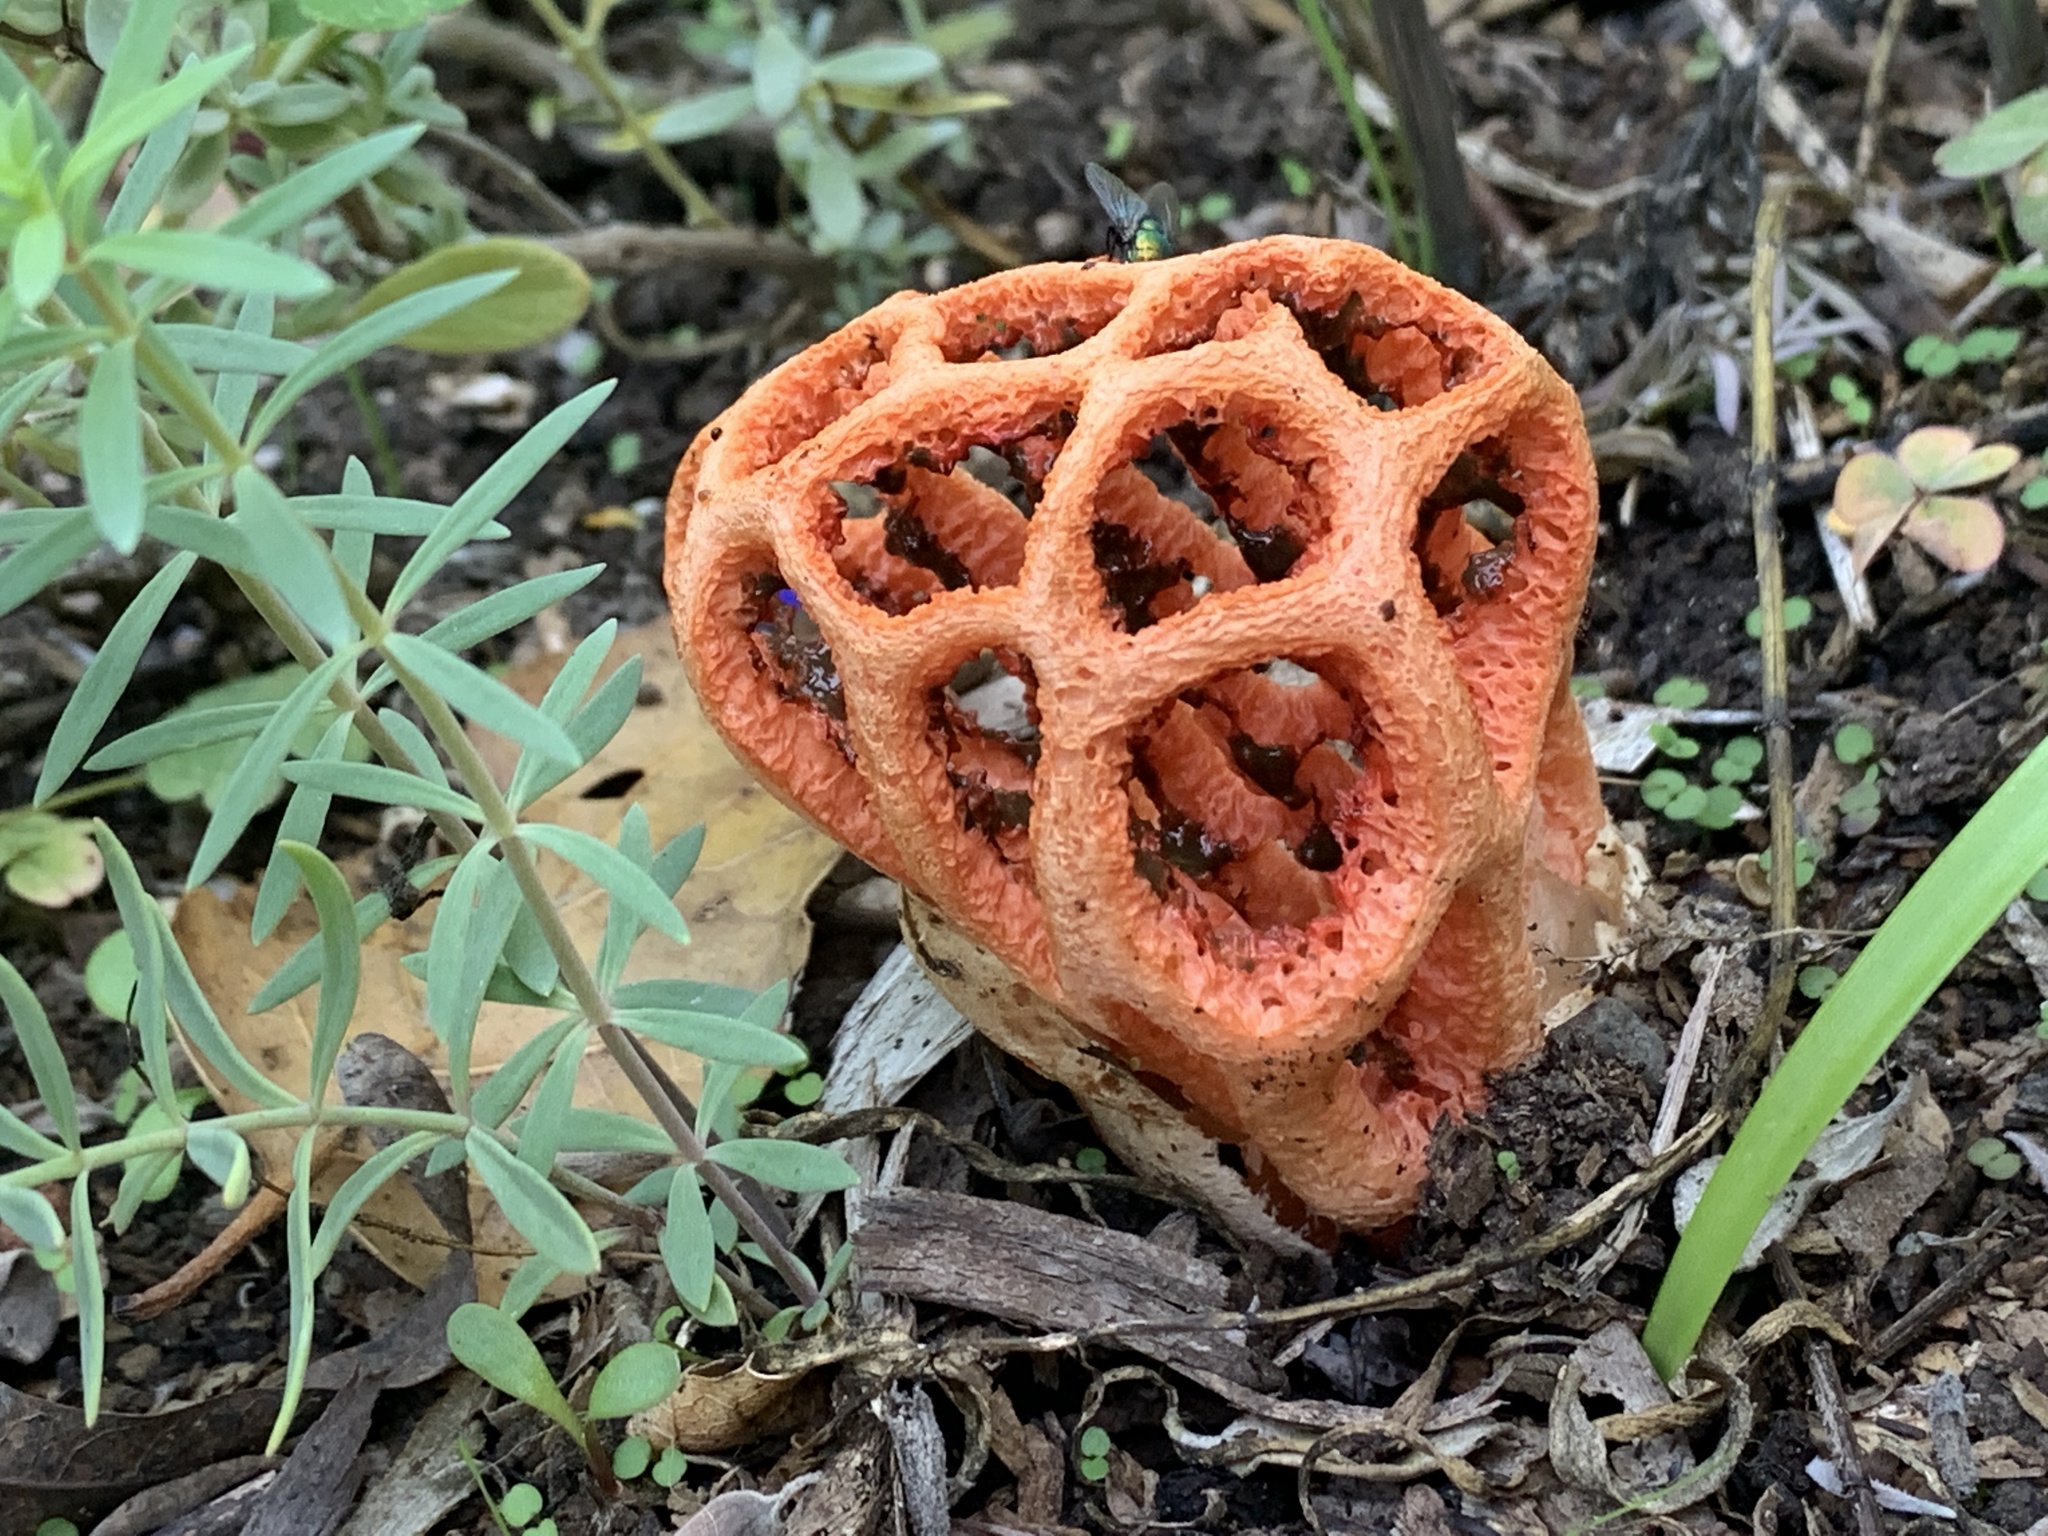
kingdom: Fungi
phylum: Basidiomycota
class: Agaricomycetes
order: Phallales
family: Phallaceae
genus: Clathrus
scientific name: Clathrus ruber
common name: Red cage
